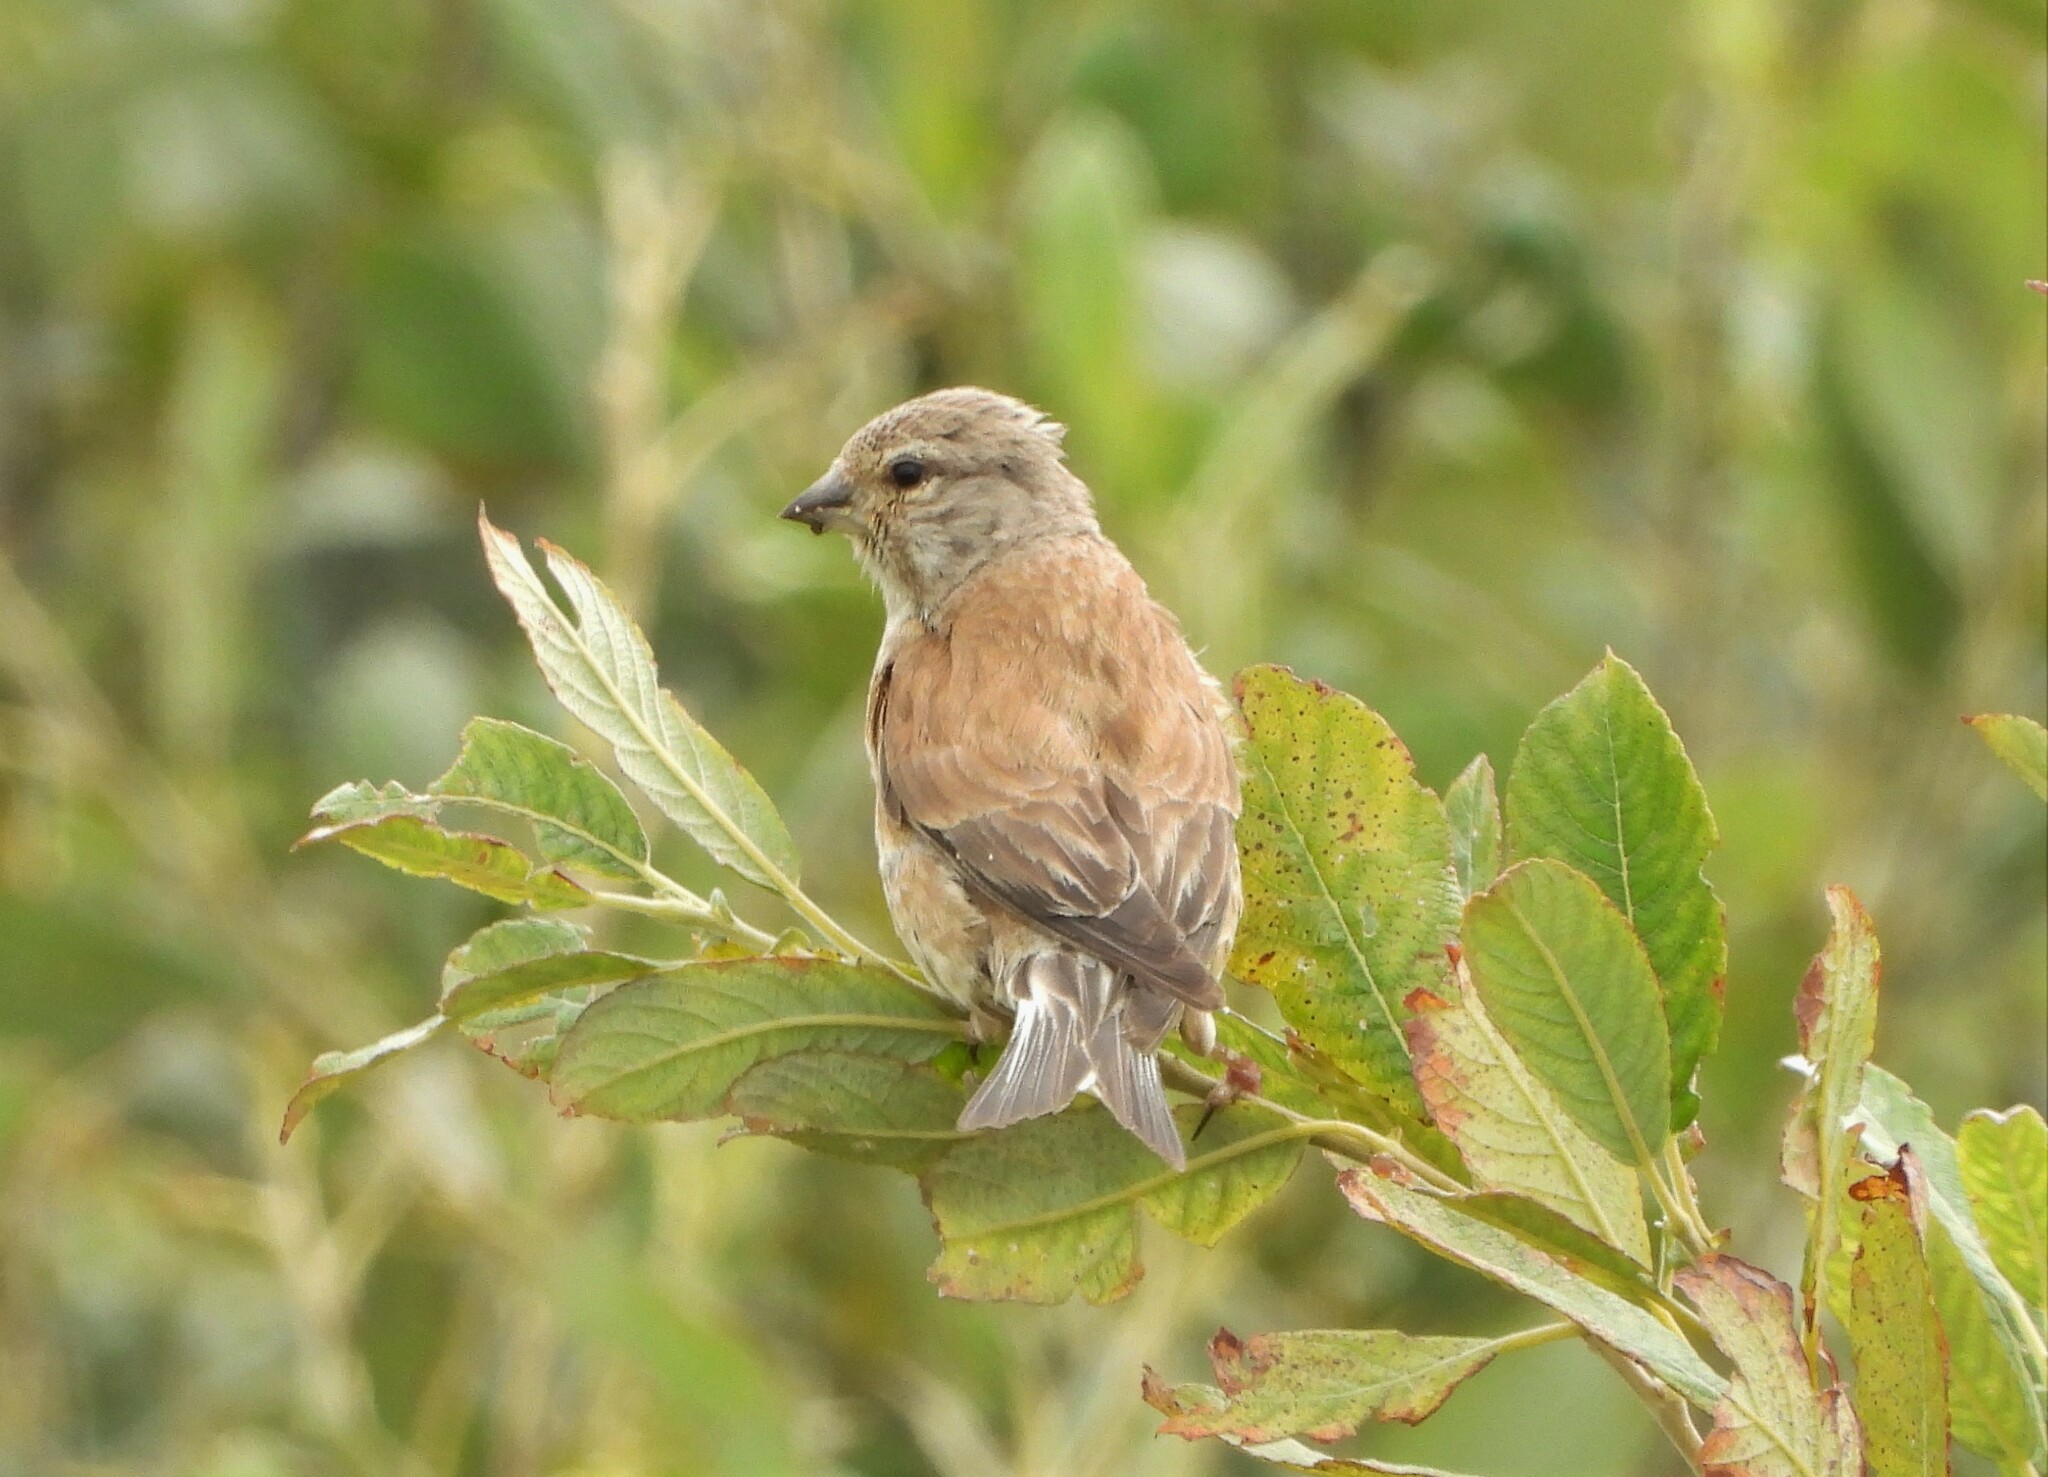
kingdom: Animalia
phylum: Chordata
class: Aves
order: Passeriformes
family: Fringillidae
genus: Linaria
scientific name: Linaria cannabina
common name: Common linnet
